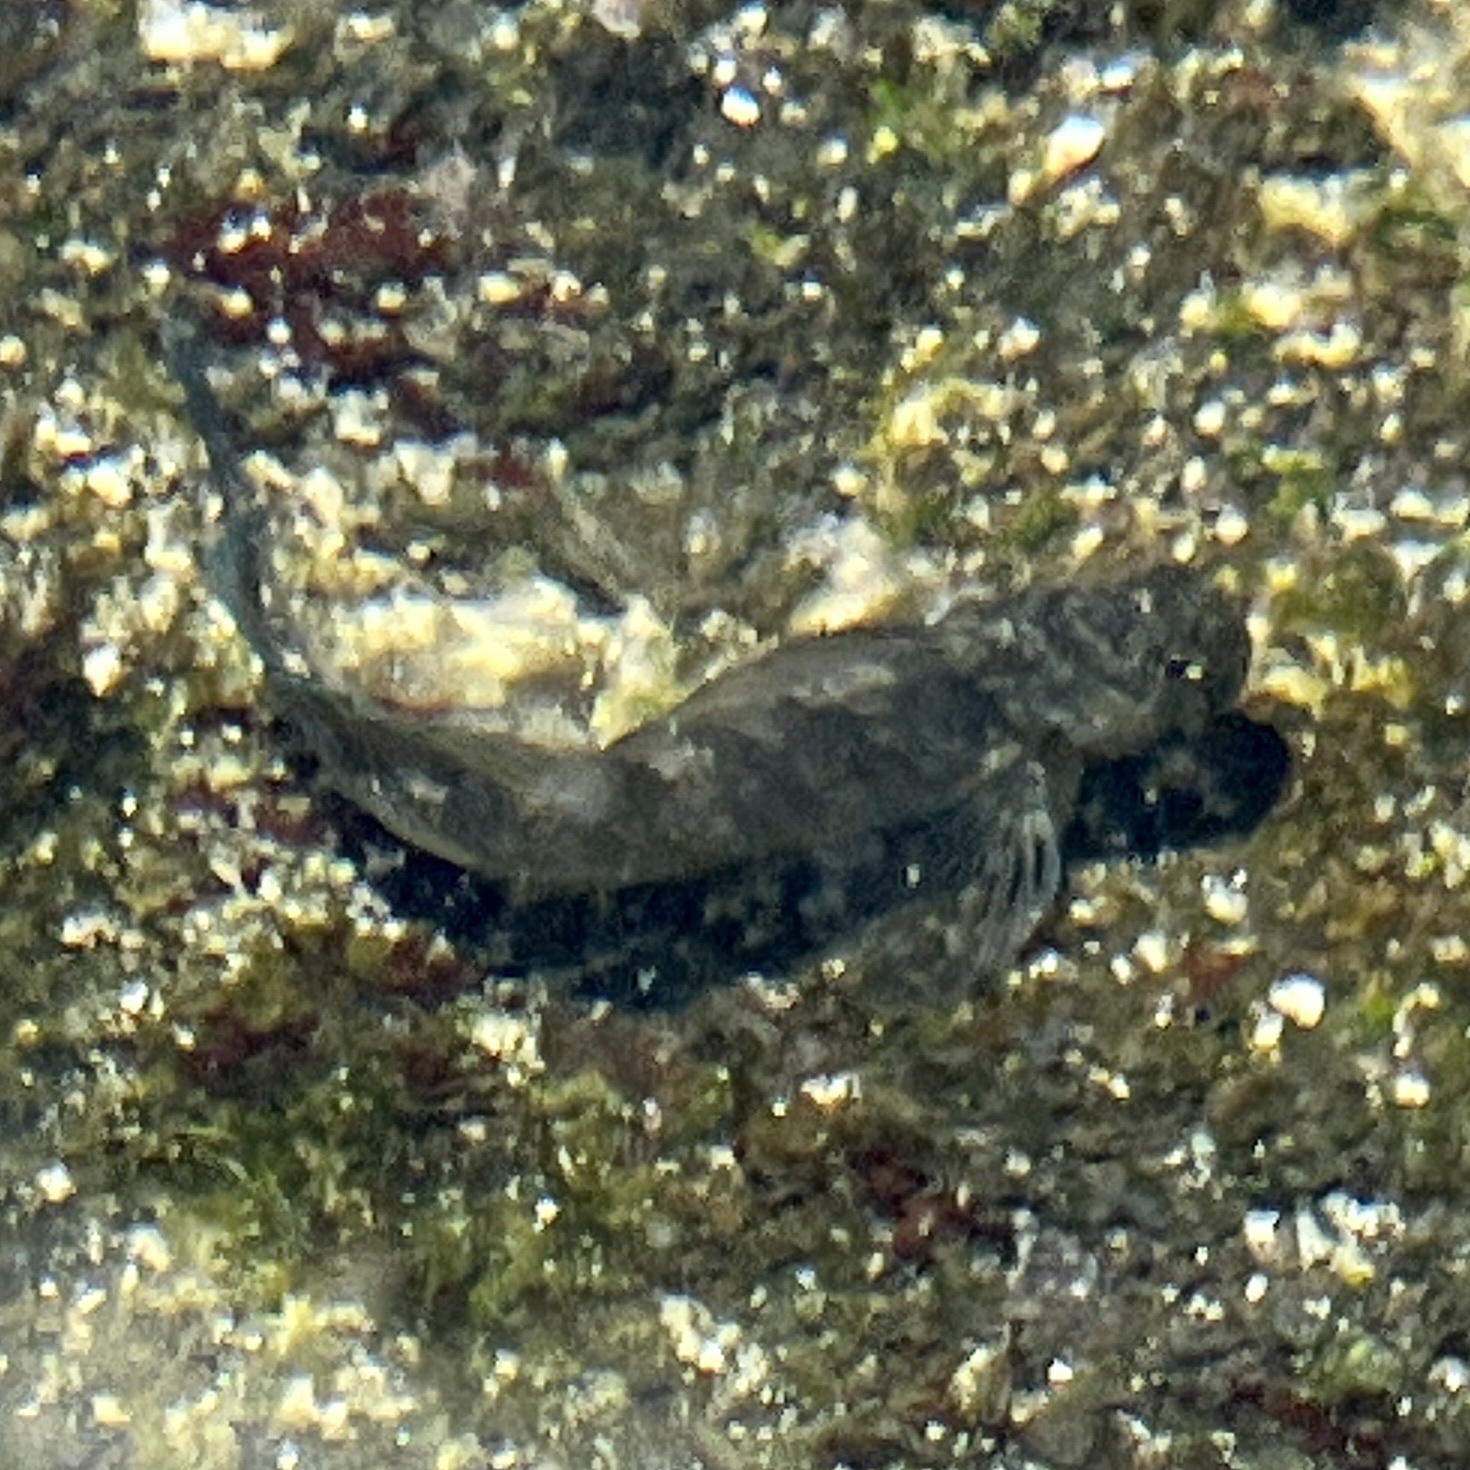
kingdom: Animalia
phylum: Chordata
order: Perciformes
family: Blenniidae
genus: Istiblennius
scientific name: Istiblennius zebra
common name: Zebra blenny
